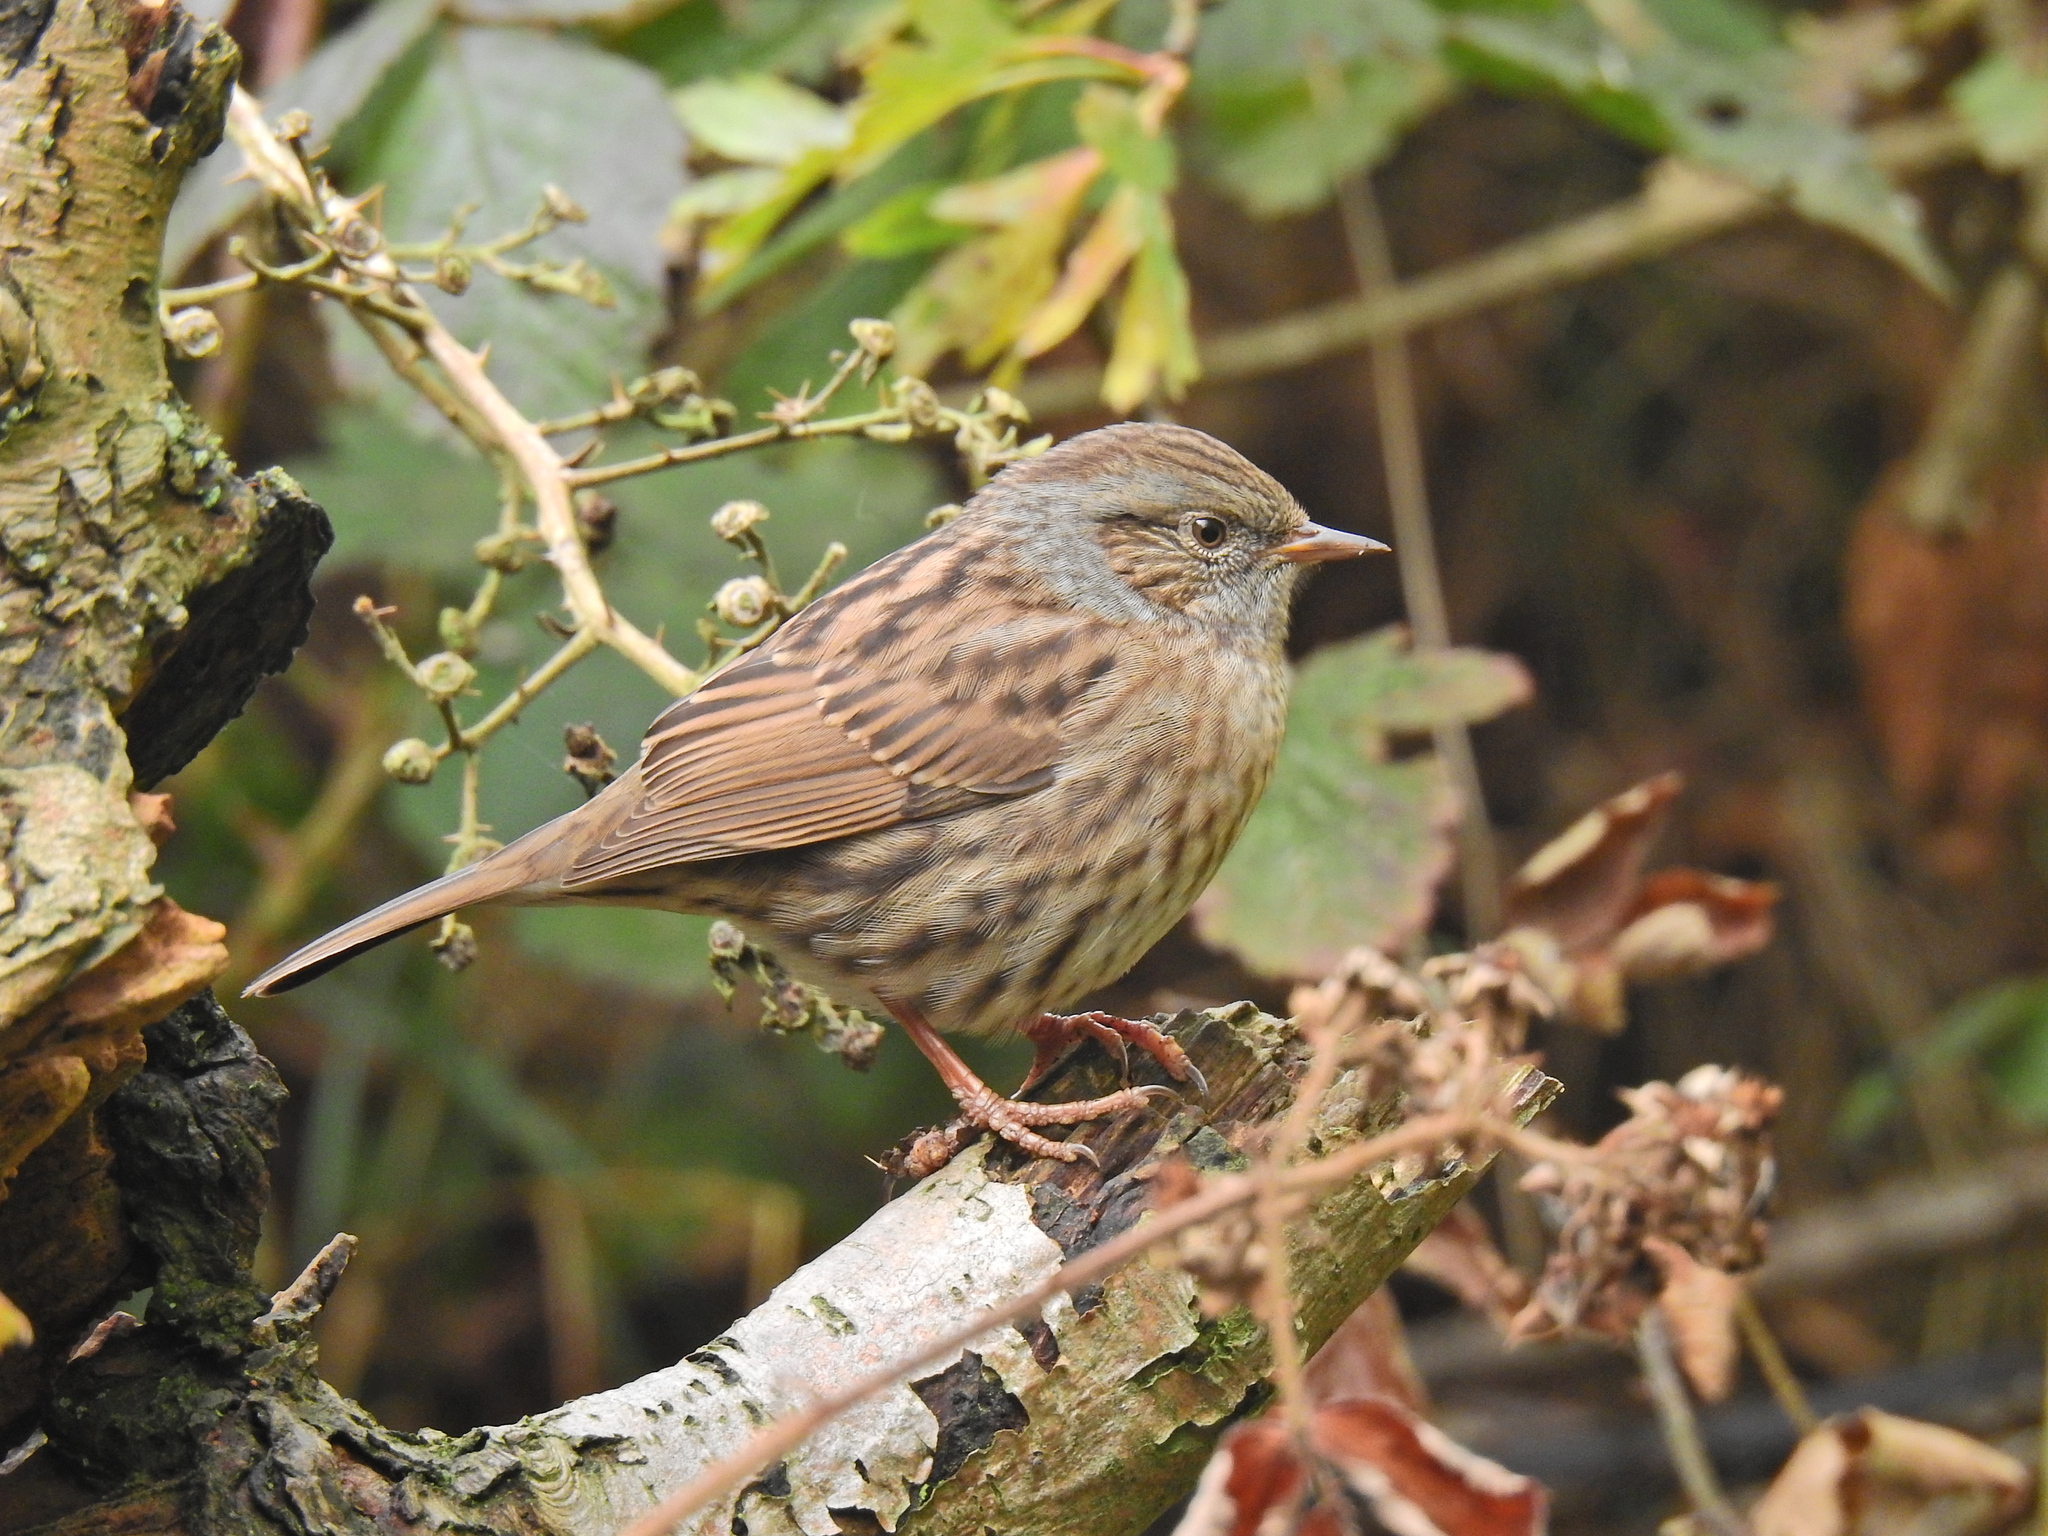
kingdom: Animalia
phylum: Chordata
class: Aves
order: Passeriformes
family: Prunellidae
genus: Prunella
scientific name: Prunella modularis
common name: Dunnock
